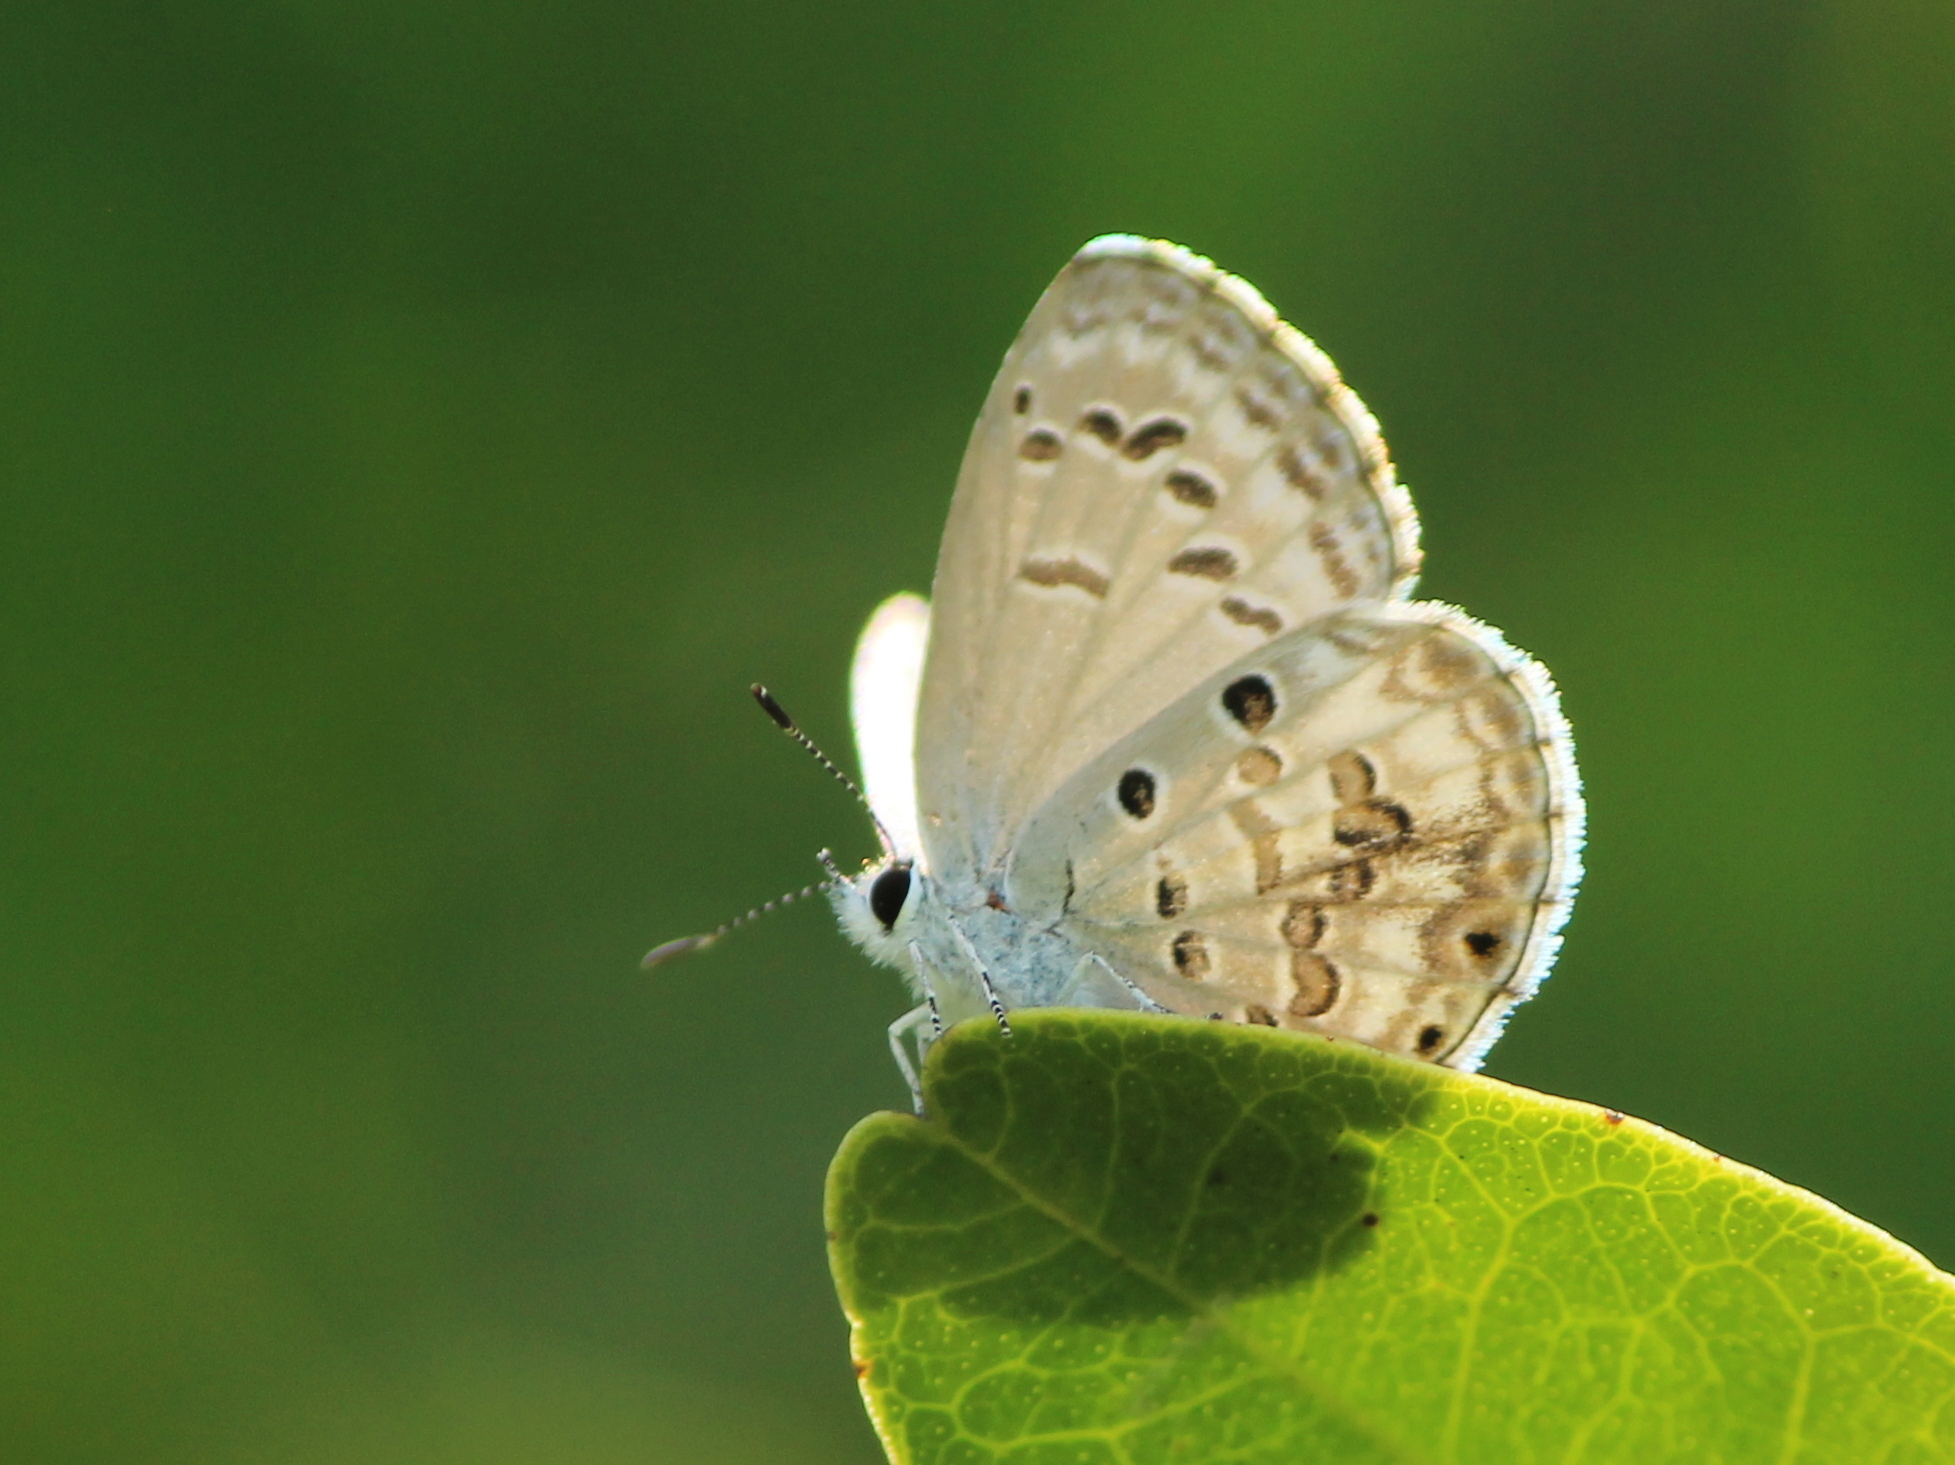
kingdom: Animalia
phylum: Arthropoda
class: Insecta
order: Lepidoptera
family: Lycaenidae
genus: Chilades
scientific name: Chilades laius
